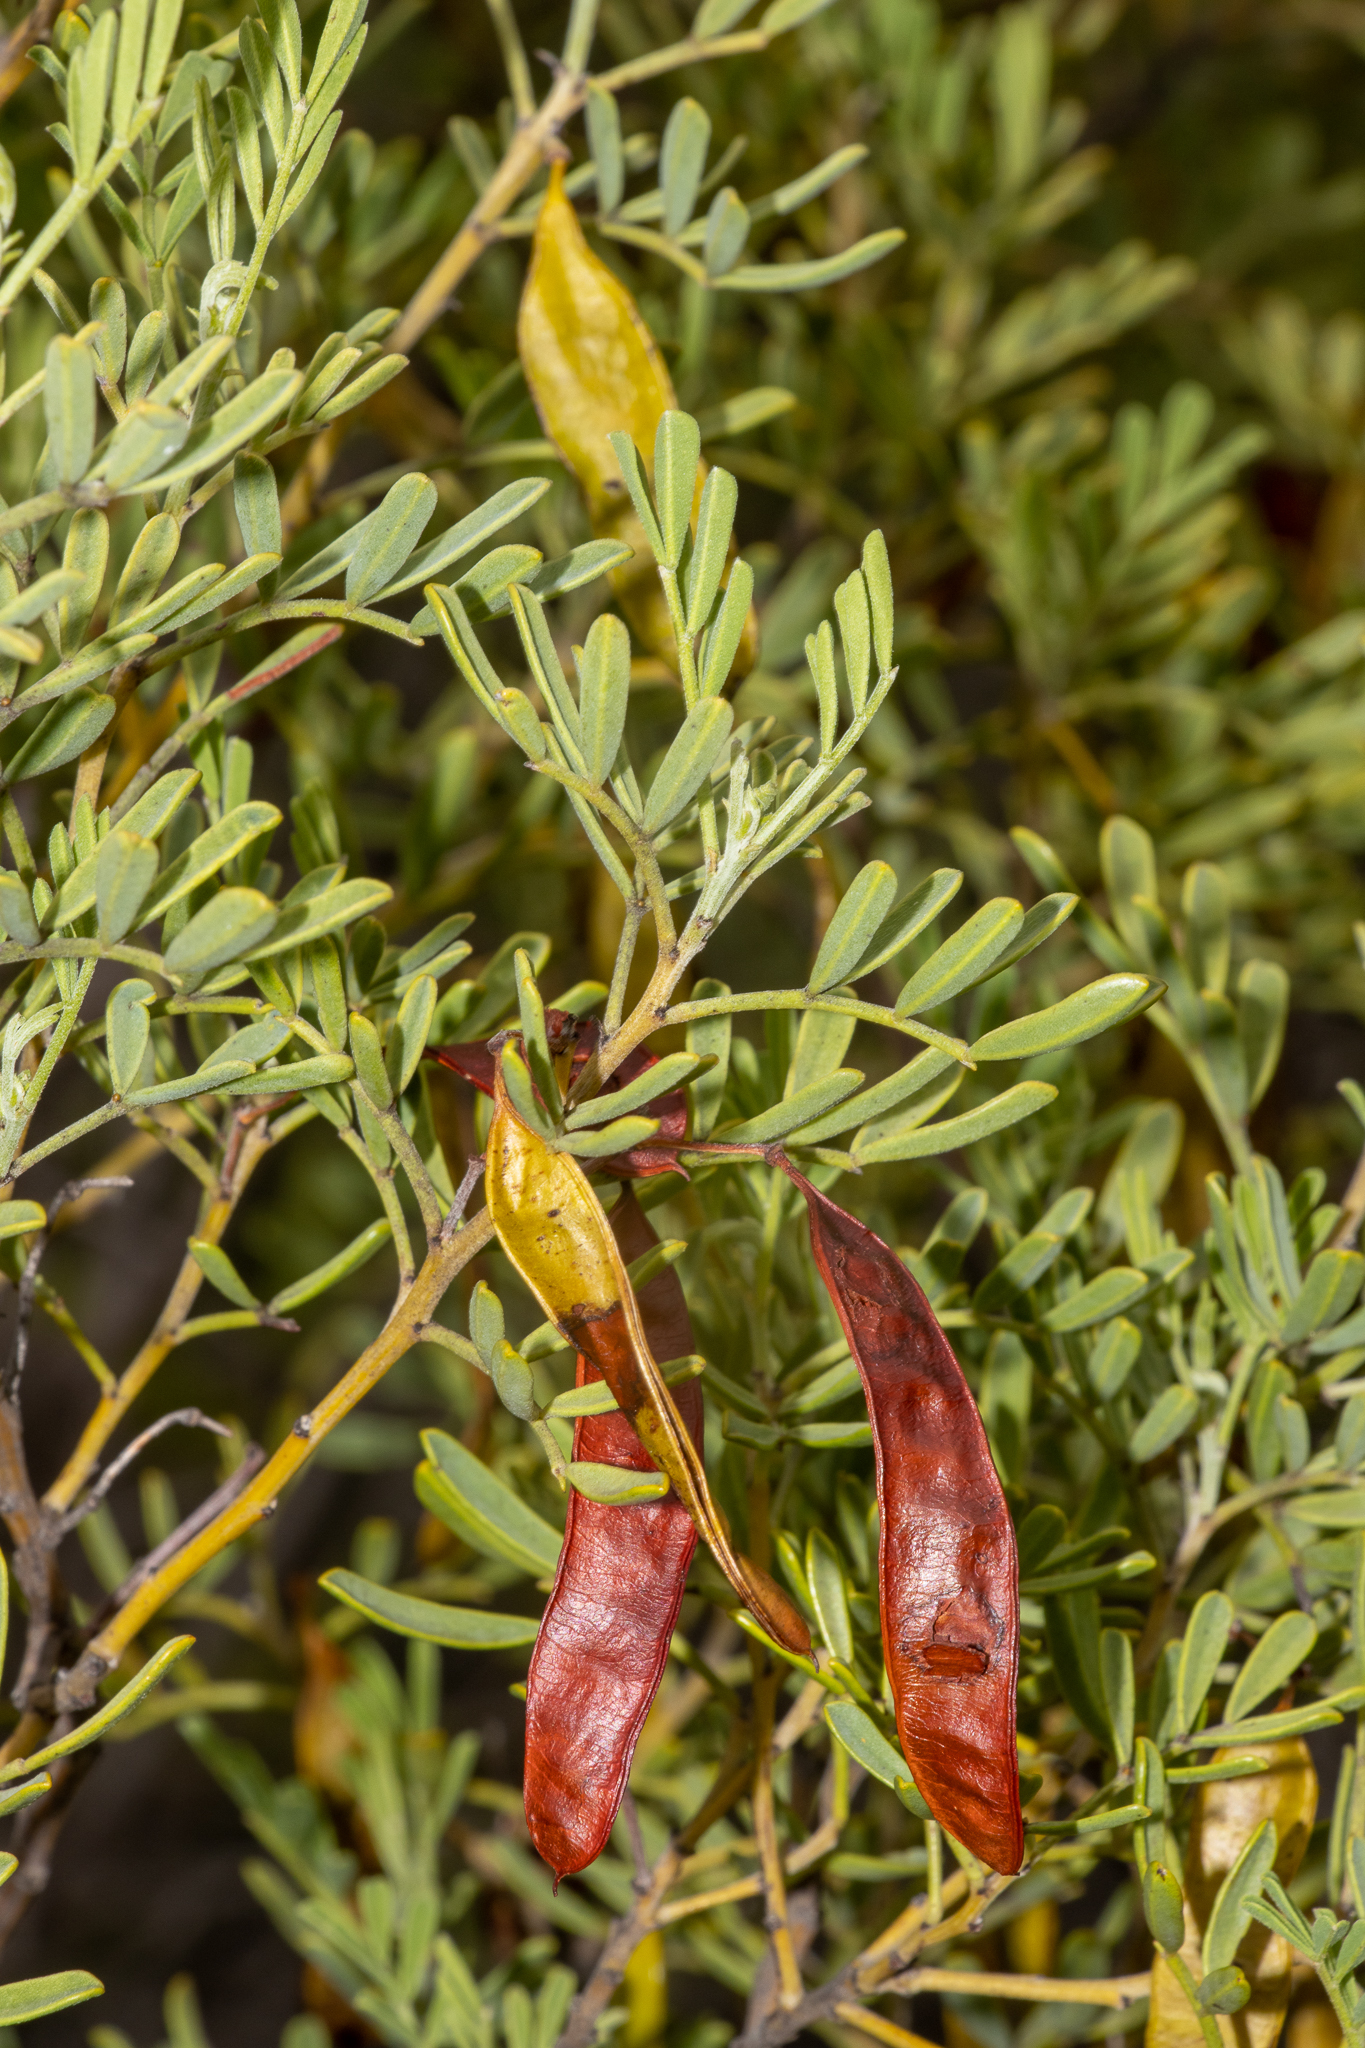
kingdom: Plantae
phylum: Tracheophyta
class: Magnoliopsida
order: Fabales
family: Fabaceae
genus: Senna
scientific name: Senna artemisioides
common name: Burnt-leaved acacia
